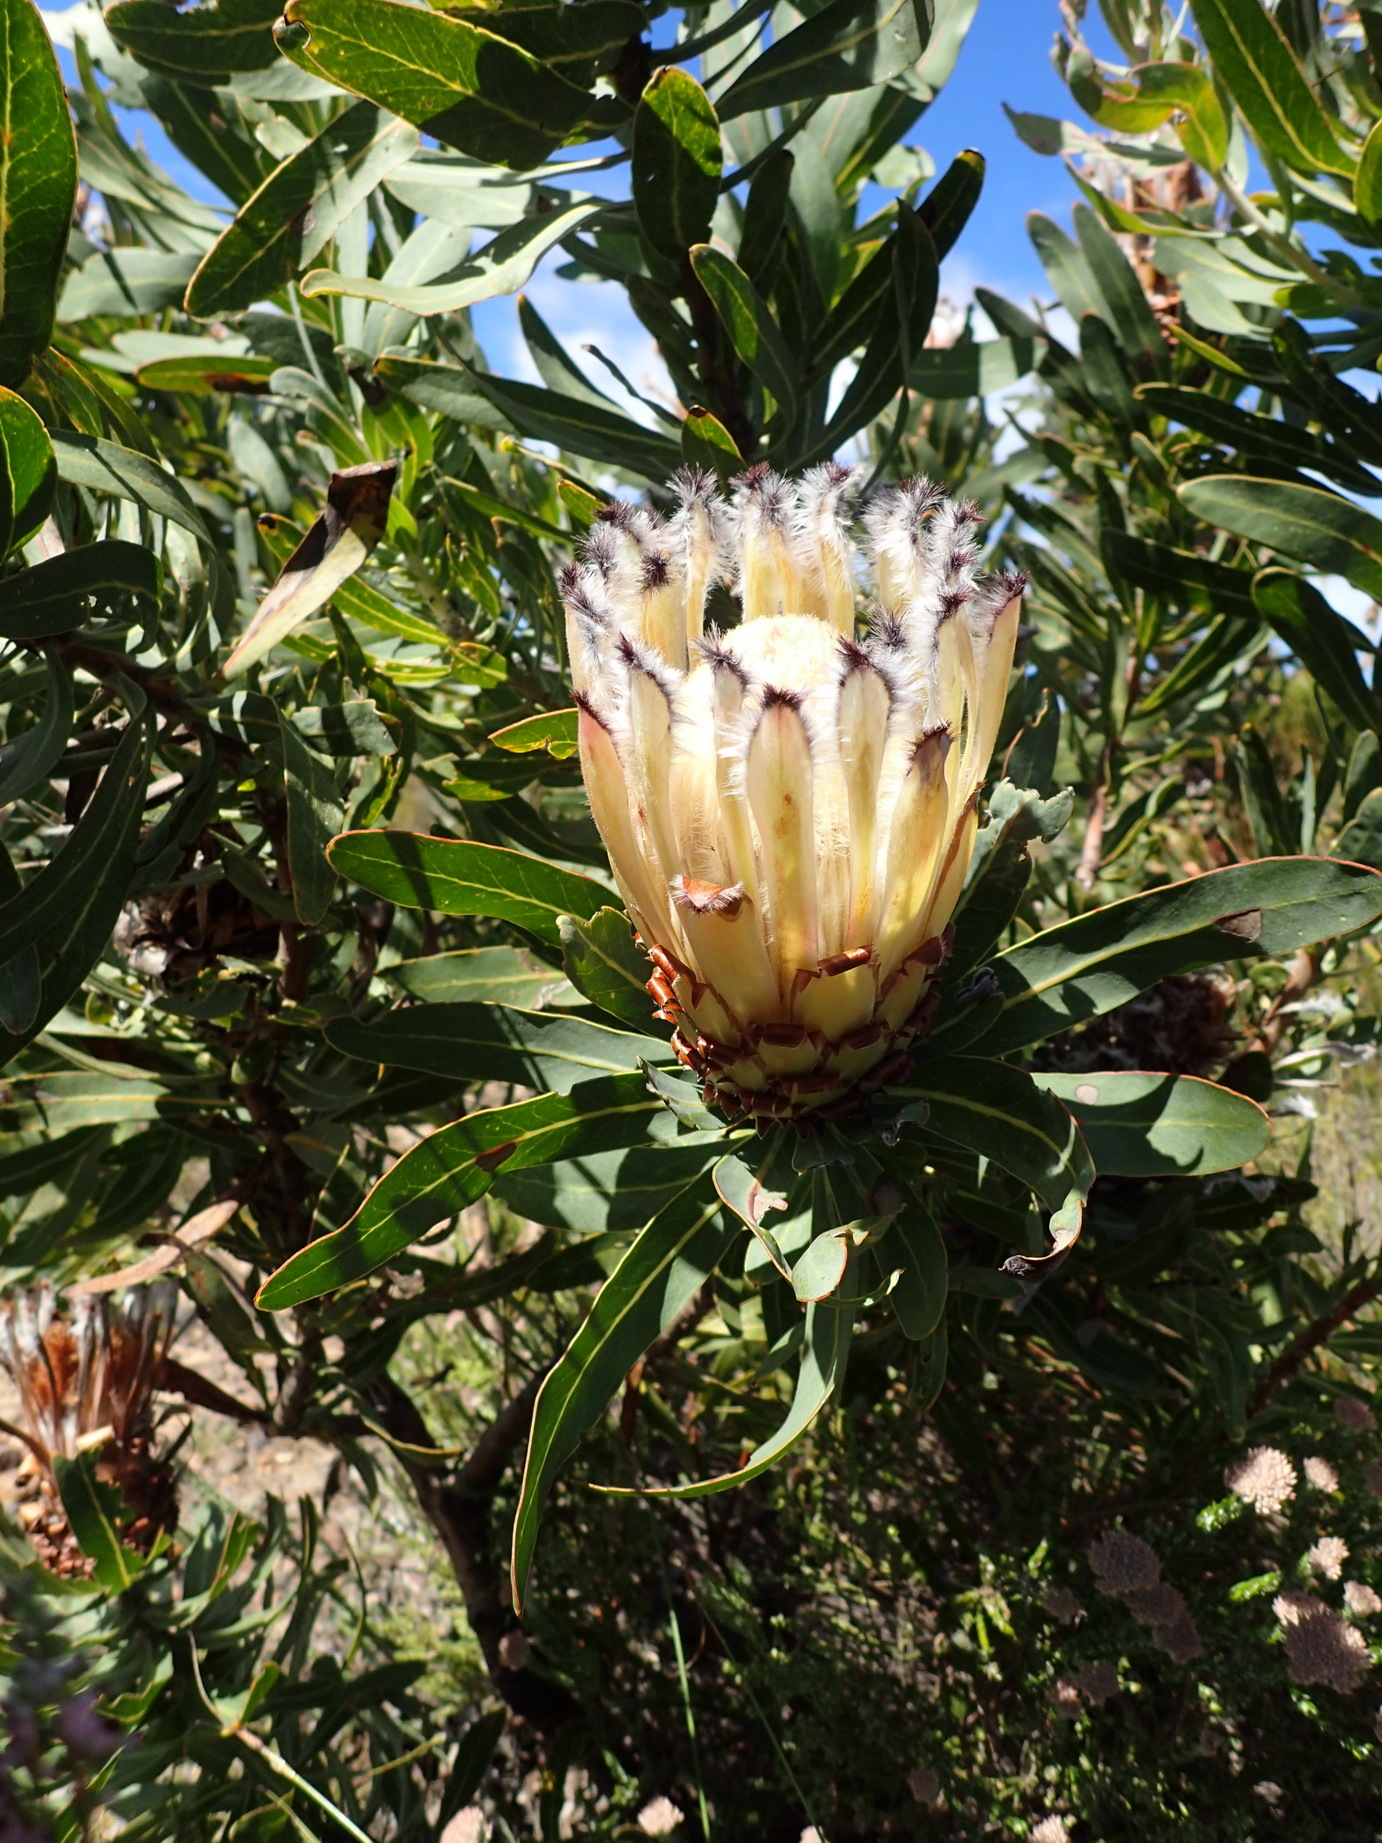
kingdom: Plantae
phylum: Tracheophyta
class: Magnoliopsida
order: Proteales
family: Proteaceae
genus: Protea
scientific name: Protea neriifolia
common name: Blue sugarbush
